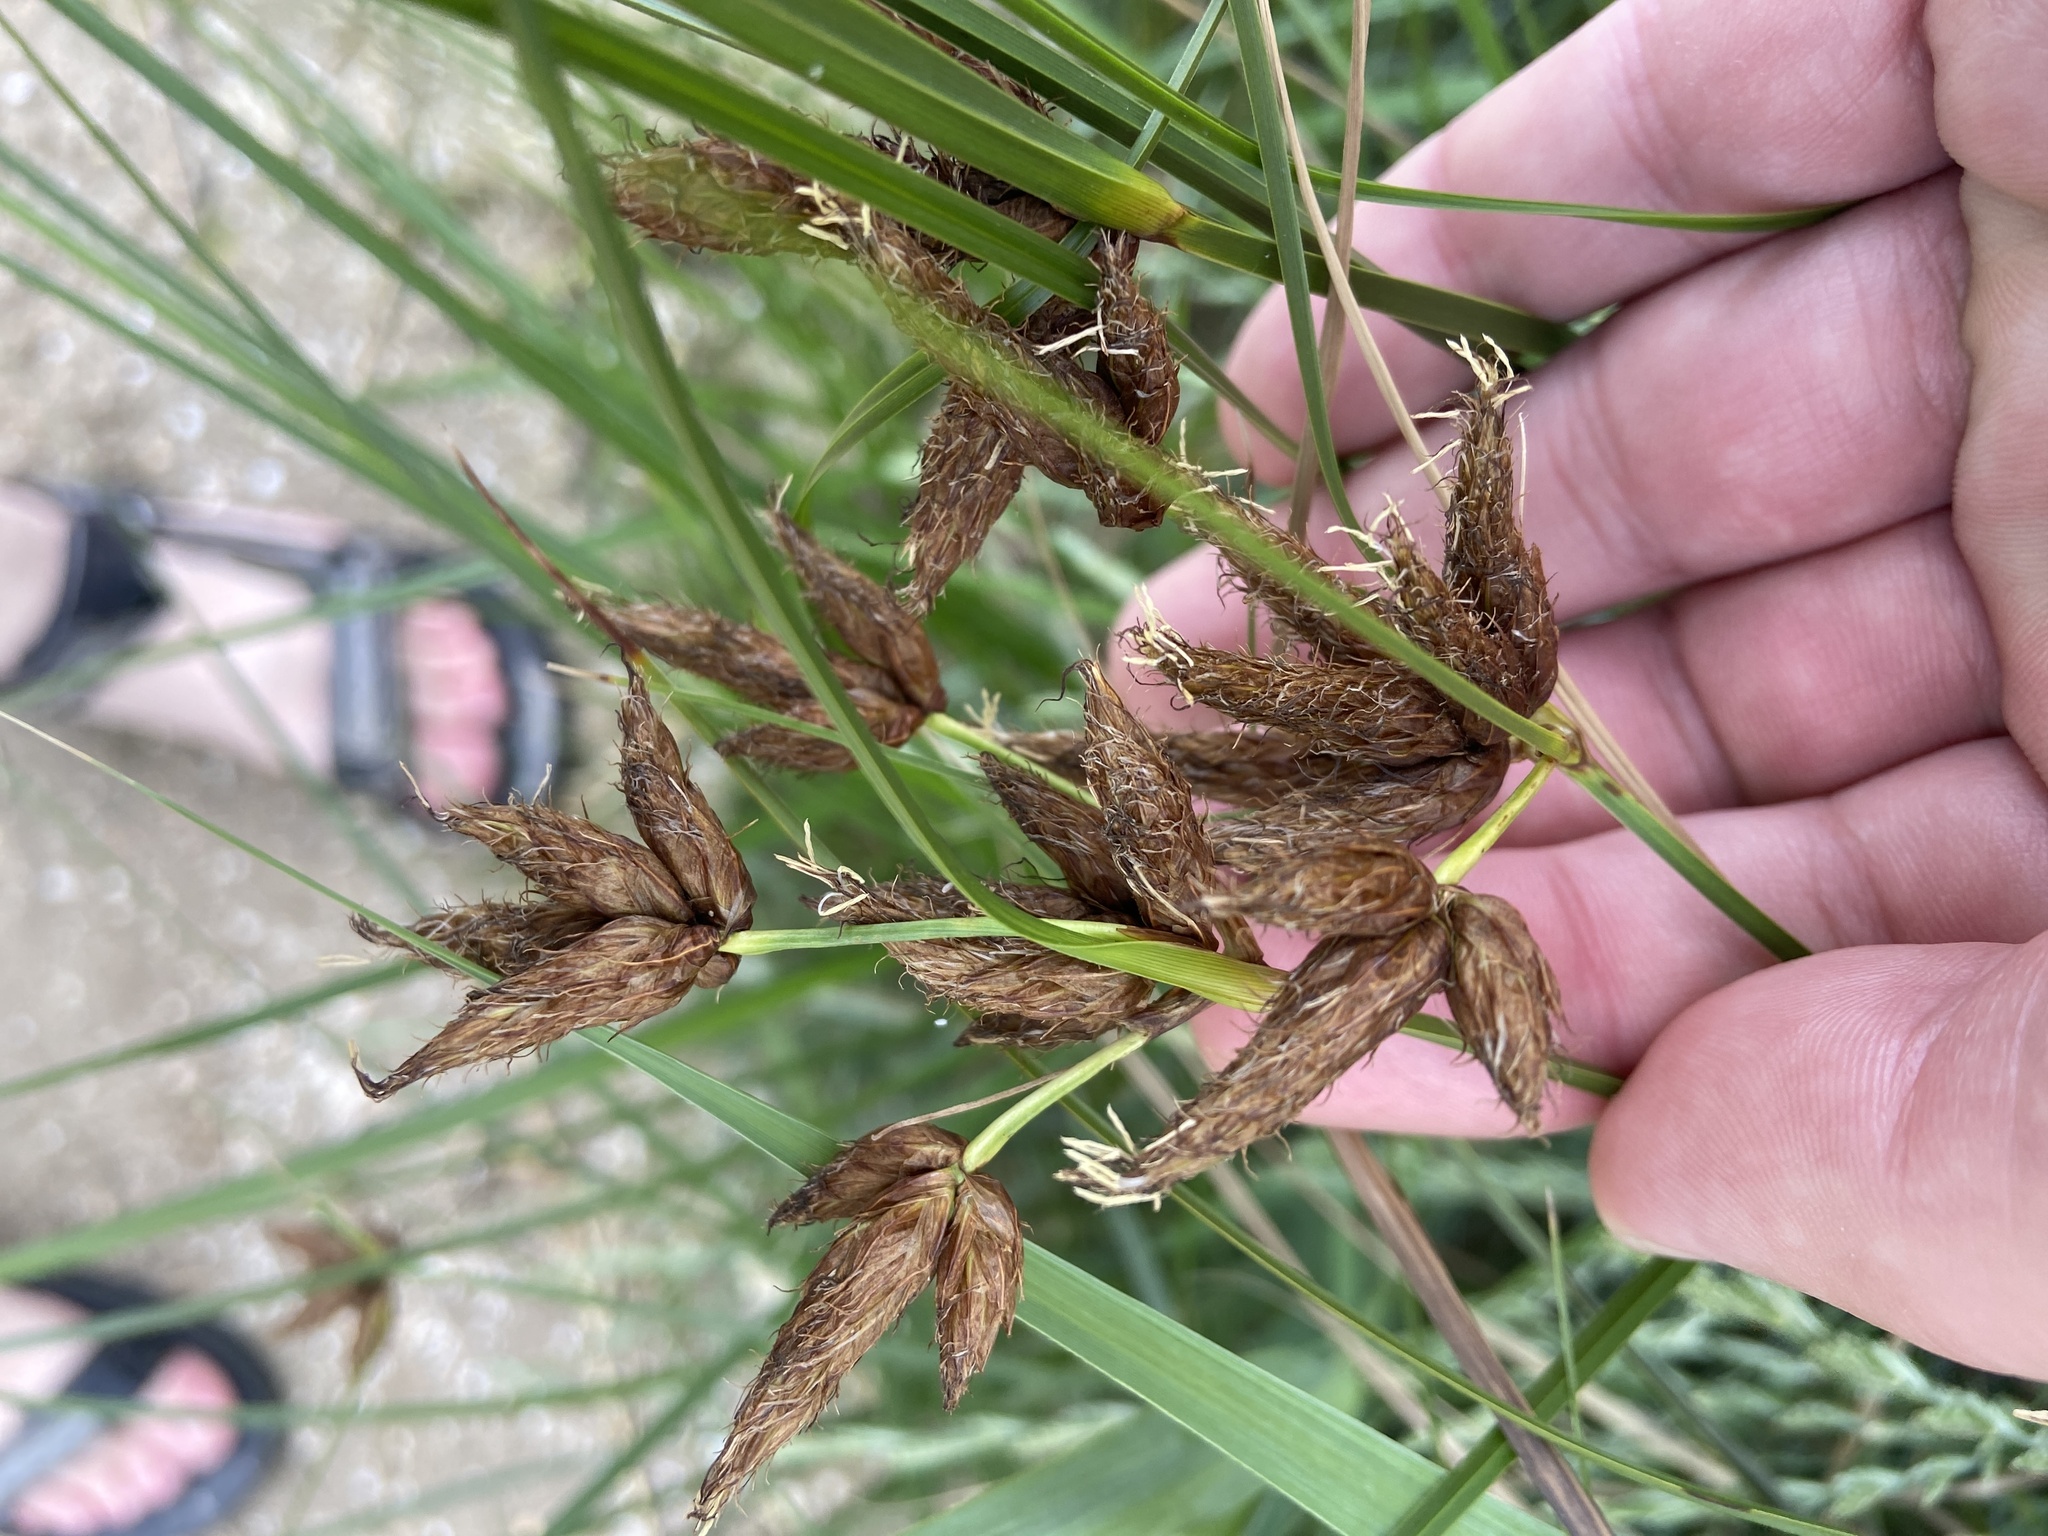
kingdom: Plantae
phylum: Tracheophyta
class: Liliopsida
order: Poales
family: Cyperaceae
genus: Bolboschoenus
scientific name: Bolboschoenus maritimus
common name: Sea club-rush
